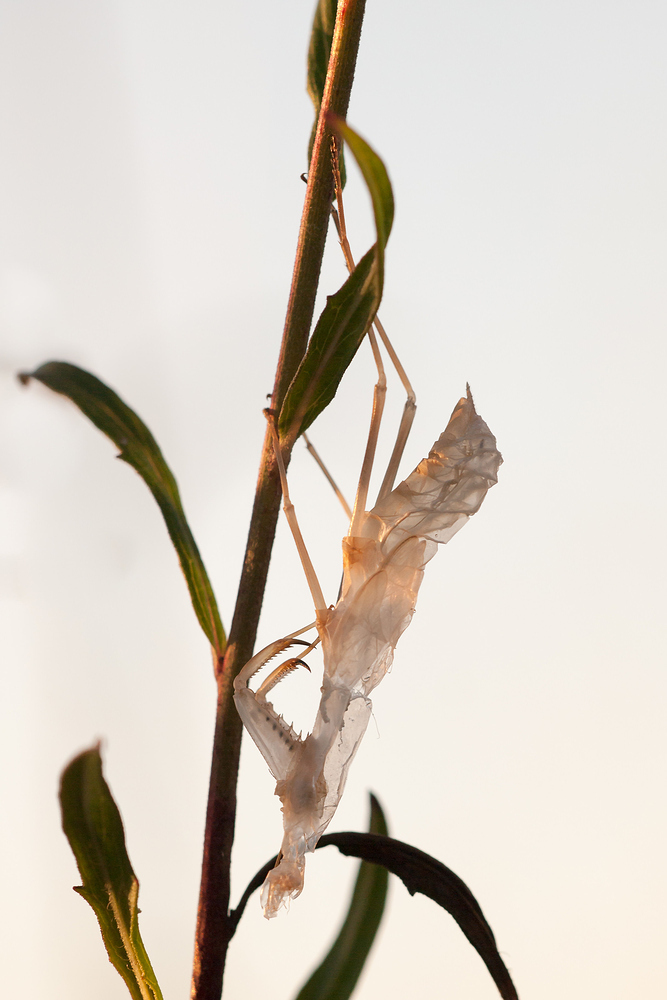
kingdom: Animalia
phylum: Arthropoda
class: Insecta
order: Mantodea
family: Mantidae
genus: Mantis
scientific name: Mantis religiosa
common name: Praying mantis
